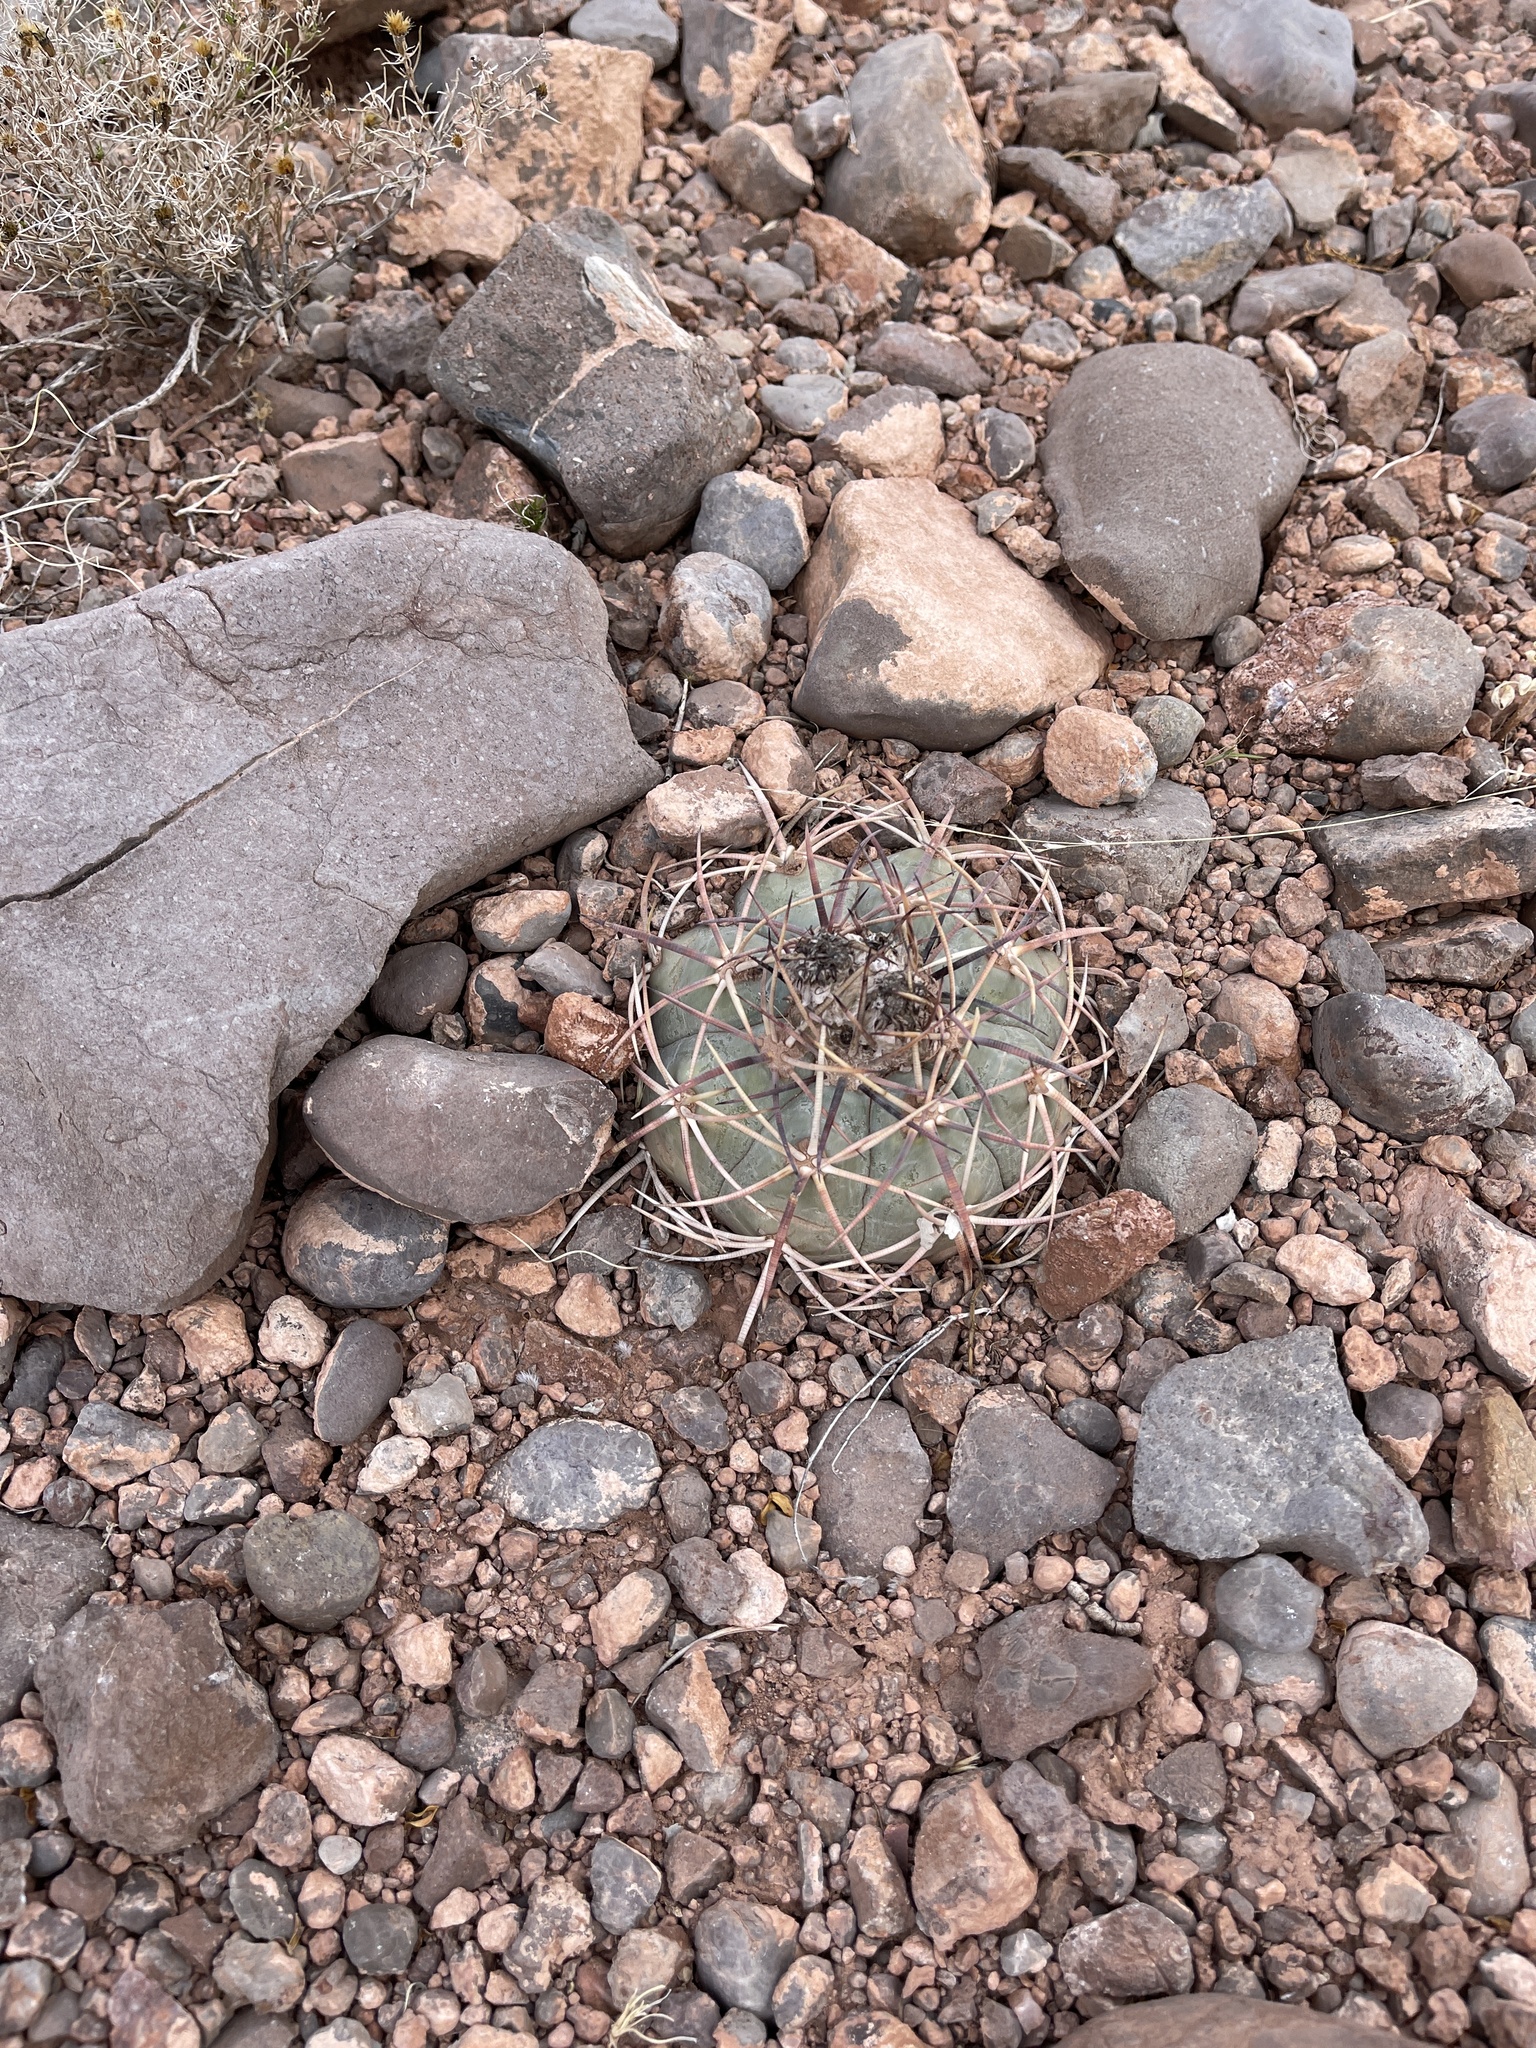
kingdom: Plantae
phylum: Tracheophyta
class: Magnoliopsida
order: Caryophyllales
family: Cactaceae
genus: Echinocactus
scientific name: Echinocactus horizonthalonius
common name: Devilshead
